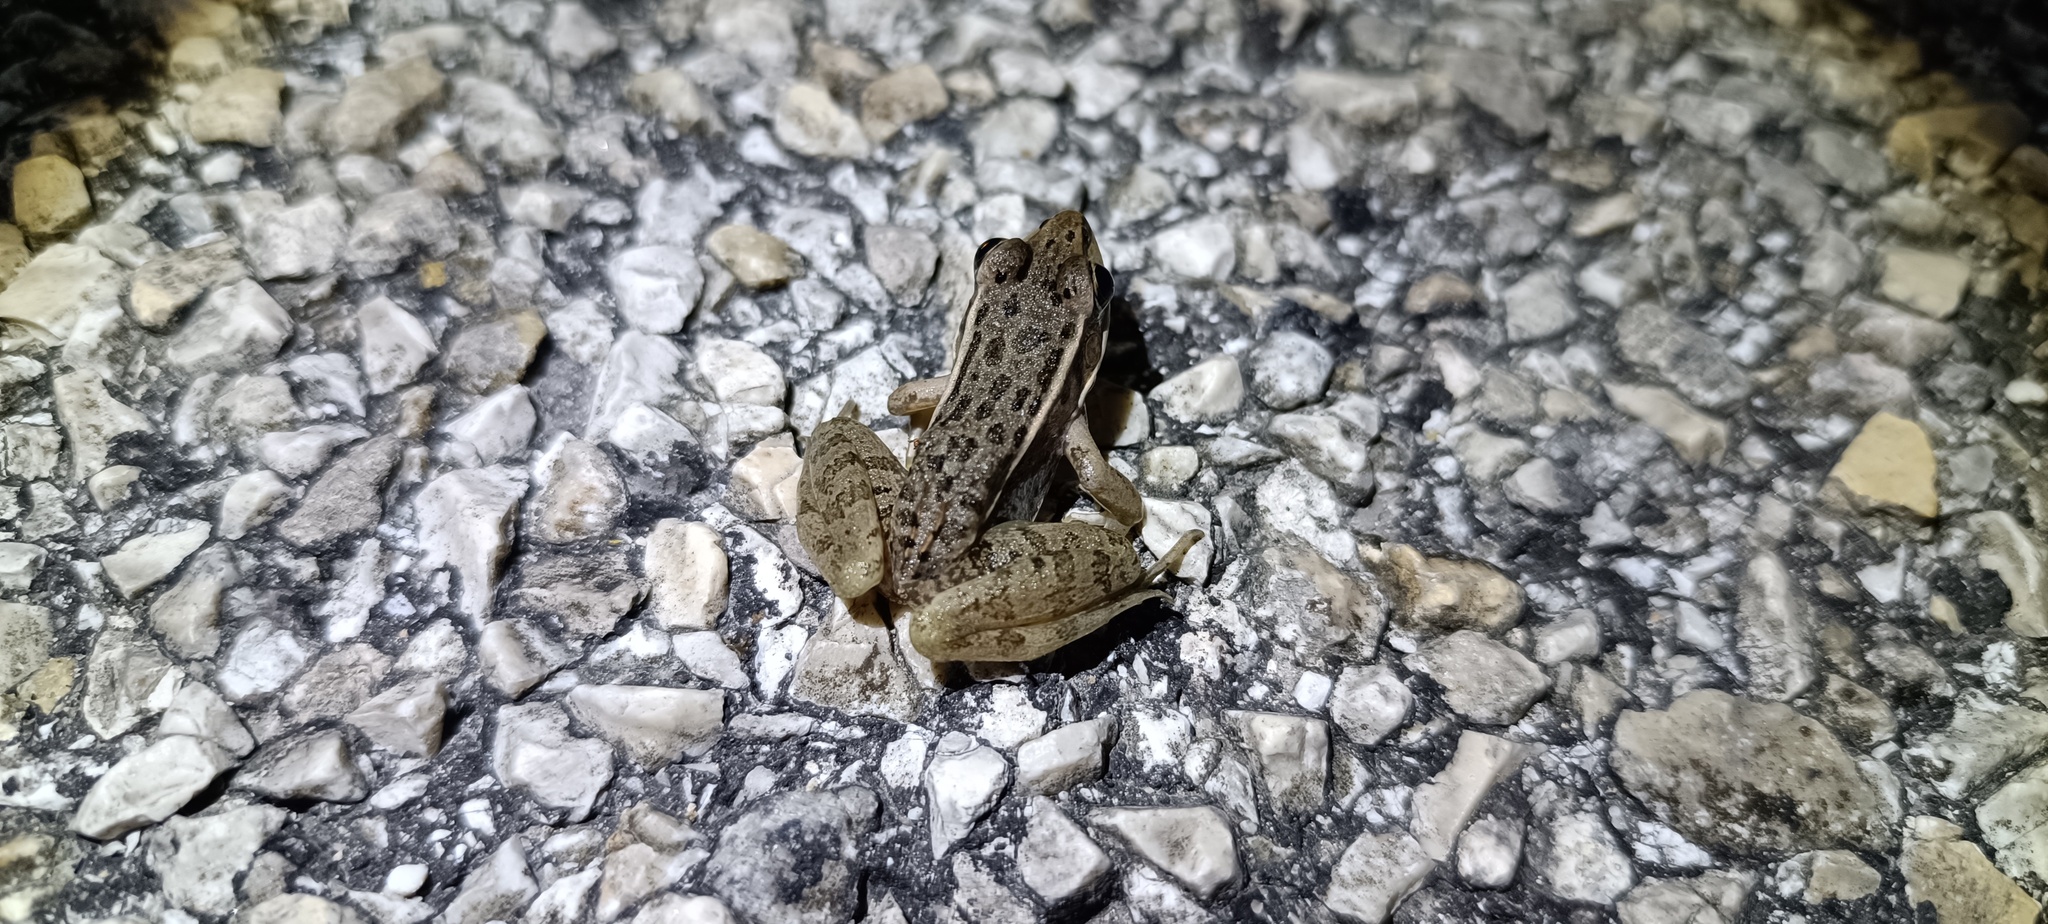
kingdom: Animalia
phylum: Chordata
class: Amphibia
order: Anura
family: Ranidae
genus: Lithobates
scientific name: Lithobates brownorum
